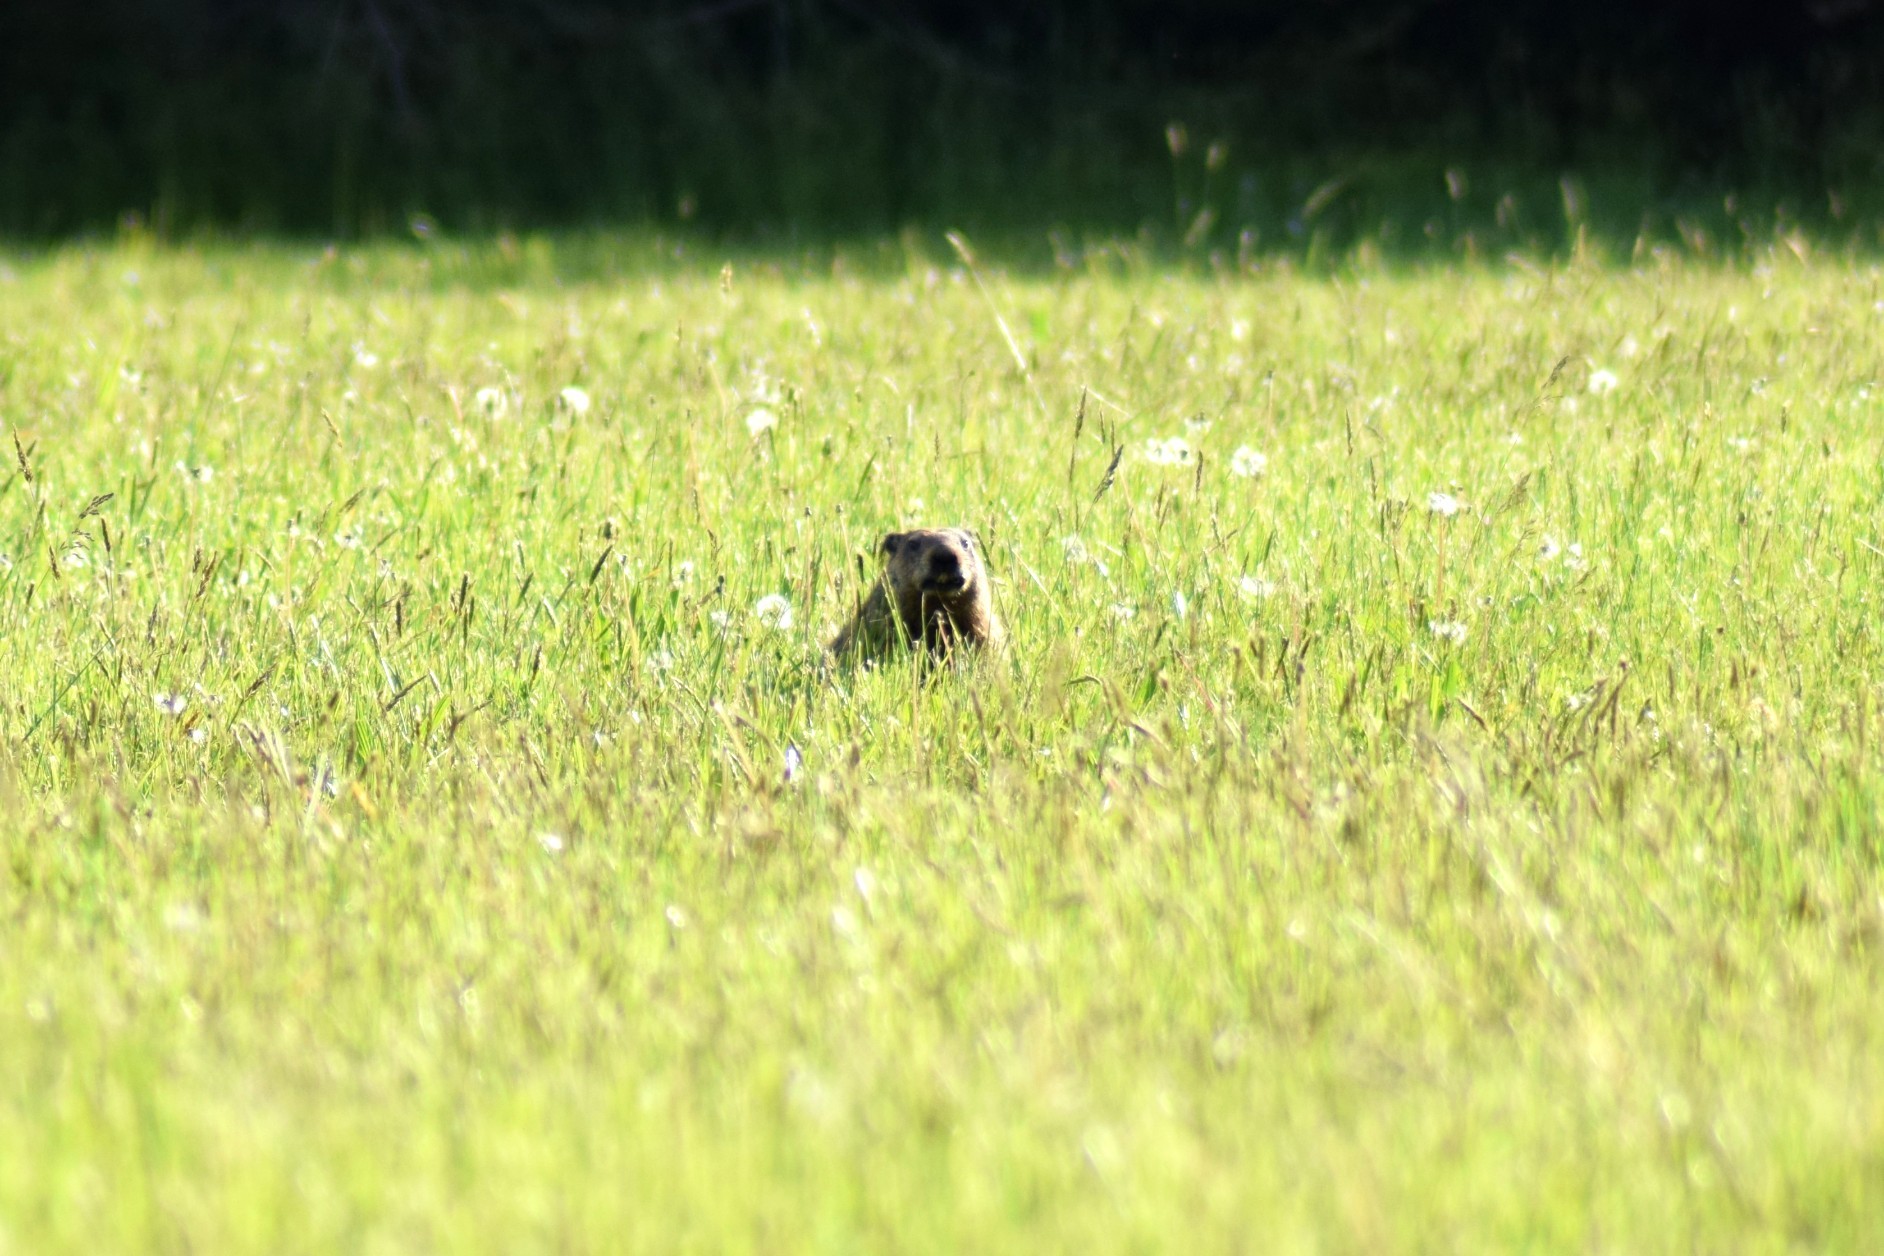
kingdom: Animalia
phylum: Chordata
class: Mammalia
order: Rodentia
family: Sciuridae
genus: Marmota
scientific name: Marmota monax
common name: Groundhog
